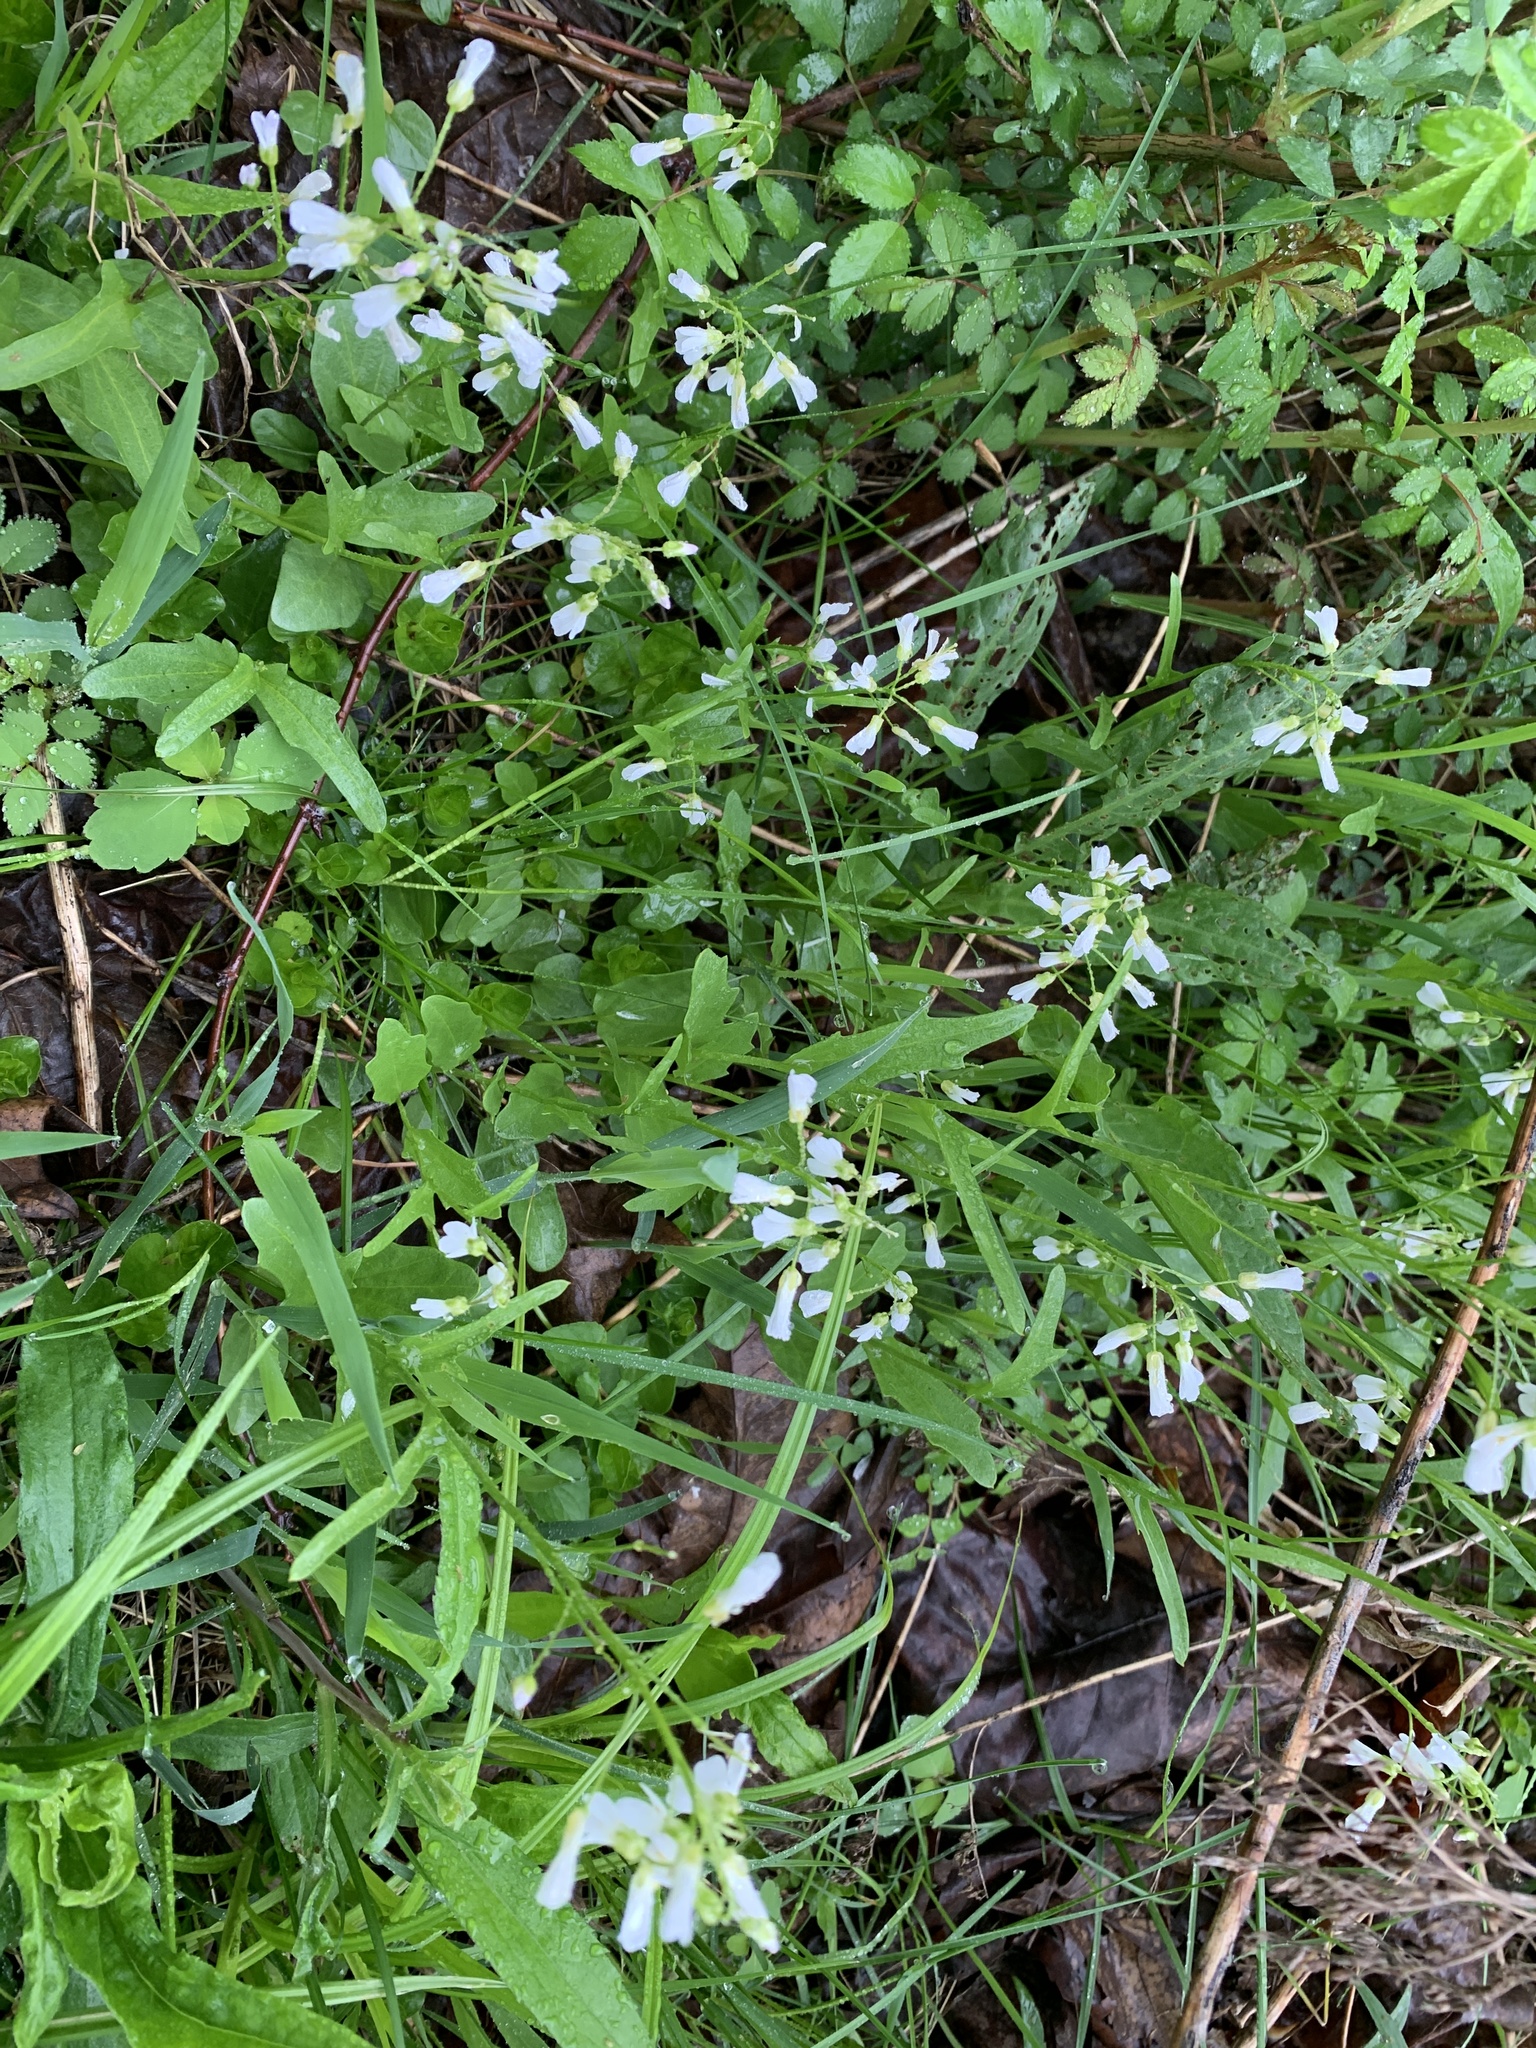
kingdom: Plantae
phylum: Tracheophyta
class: Magnoliopsida
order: Brassicales
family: Brassicaceae
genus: Cardamine
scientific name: Cardamine bulbosa
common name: Spring cress
